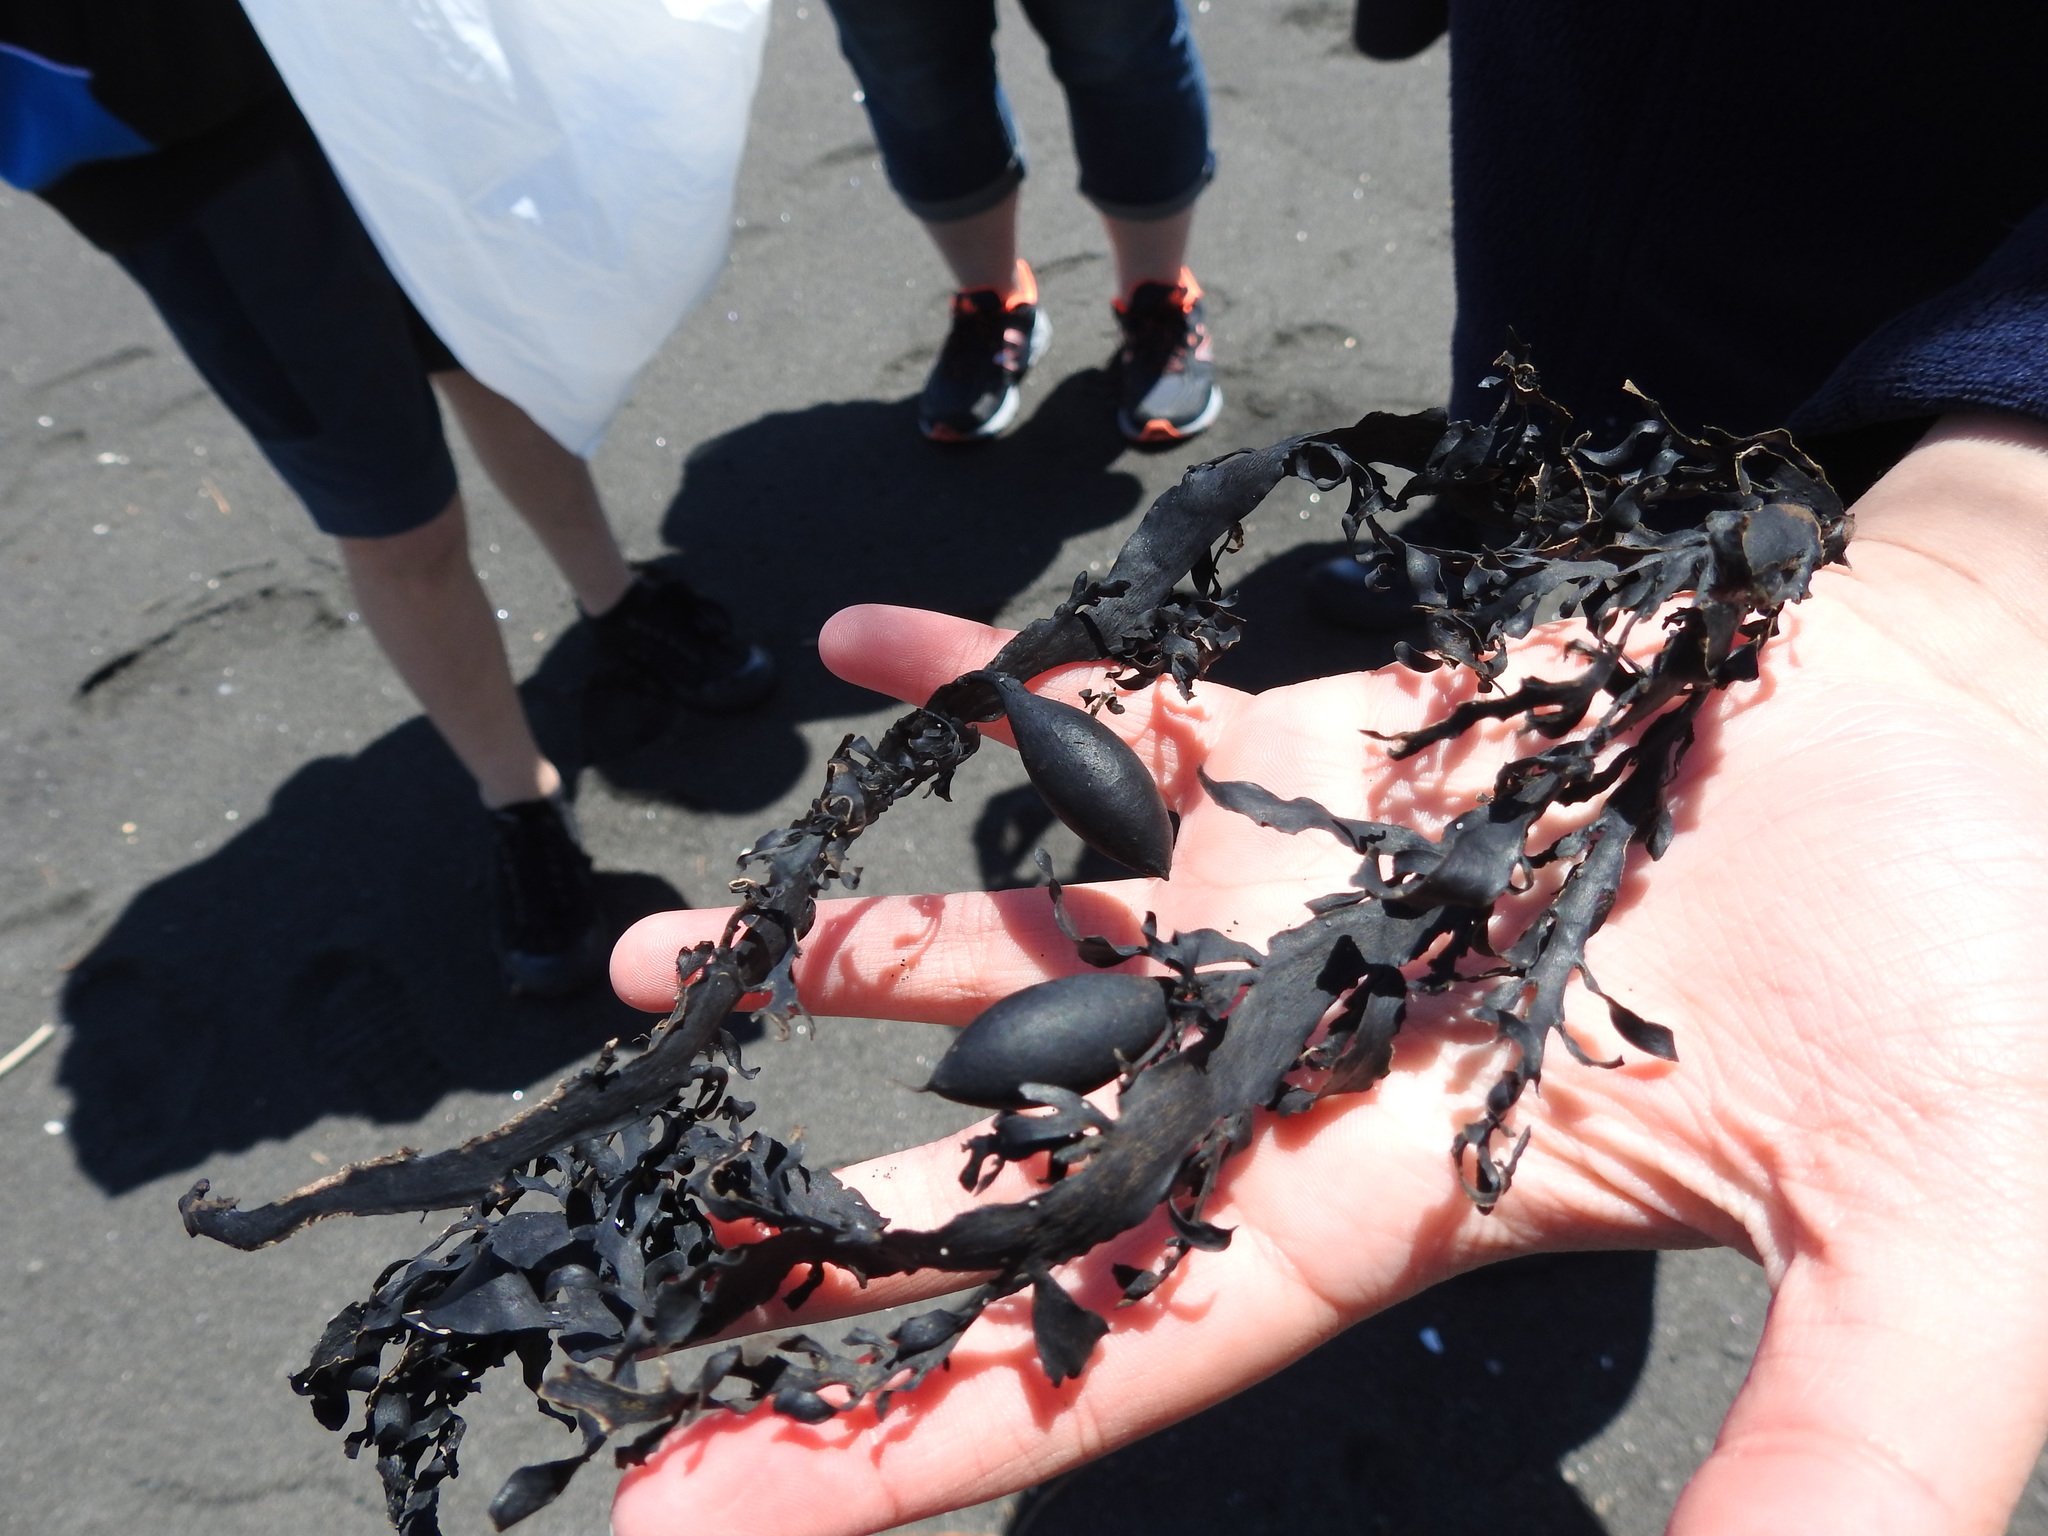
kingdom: Chromista
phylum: Ochrophyta
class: Phaeophyceae
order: Fucales
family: Sargassaceae
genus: Carpophyllum
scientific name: Carpophyllum maschalocarpum
